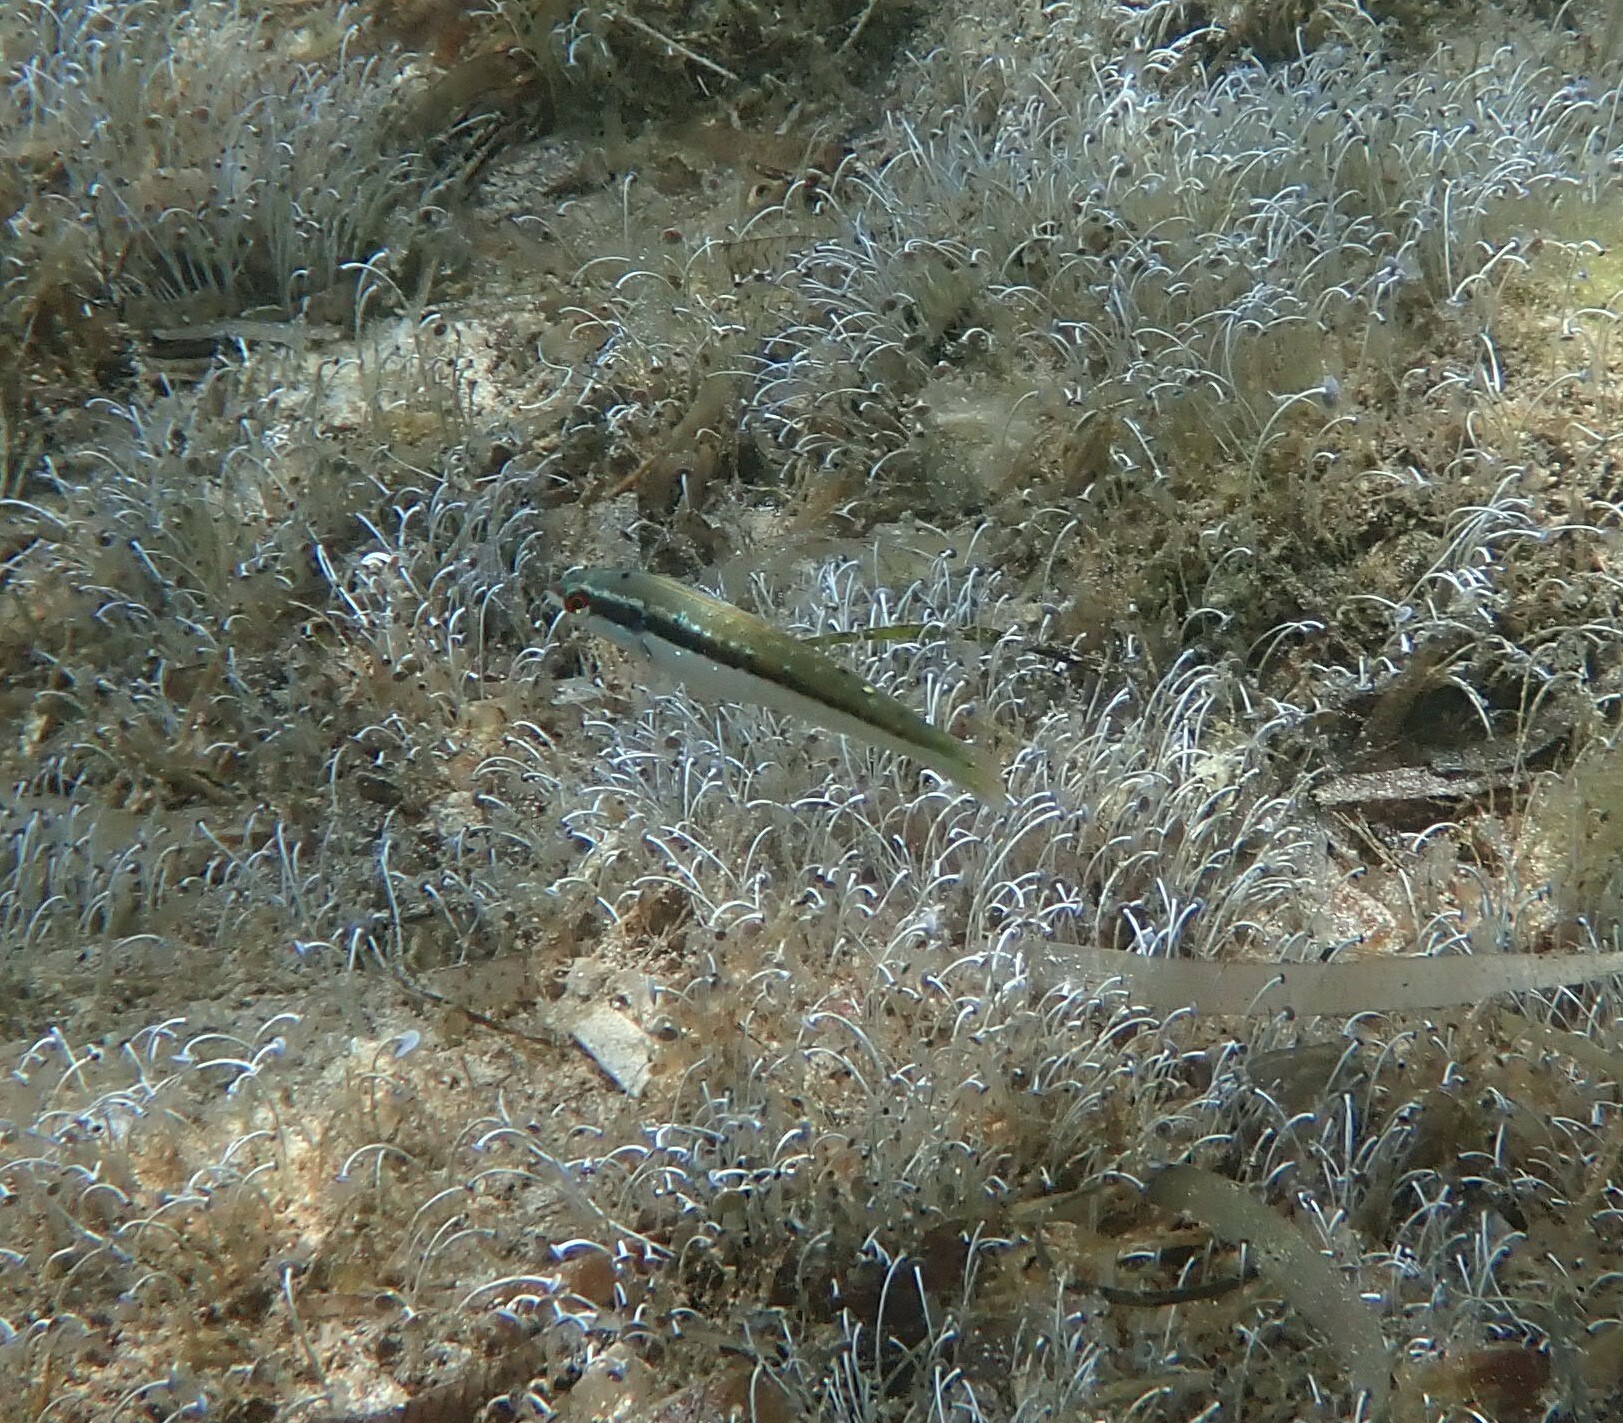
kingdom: Animalia
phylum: Chordata
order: Perciformes
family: Labridae
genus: Coris
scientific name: Coris julis
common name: Rainbow wrasse
